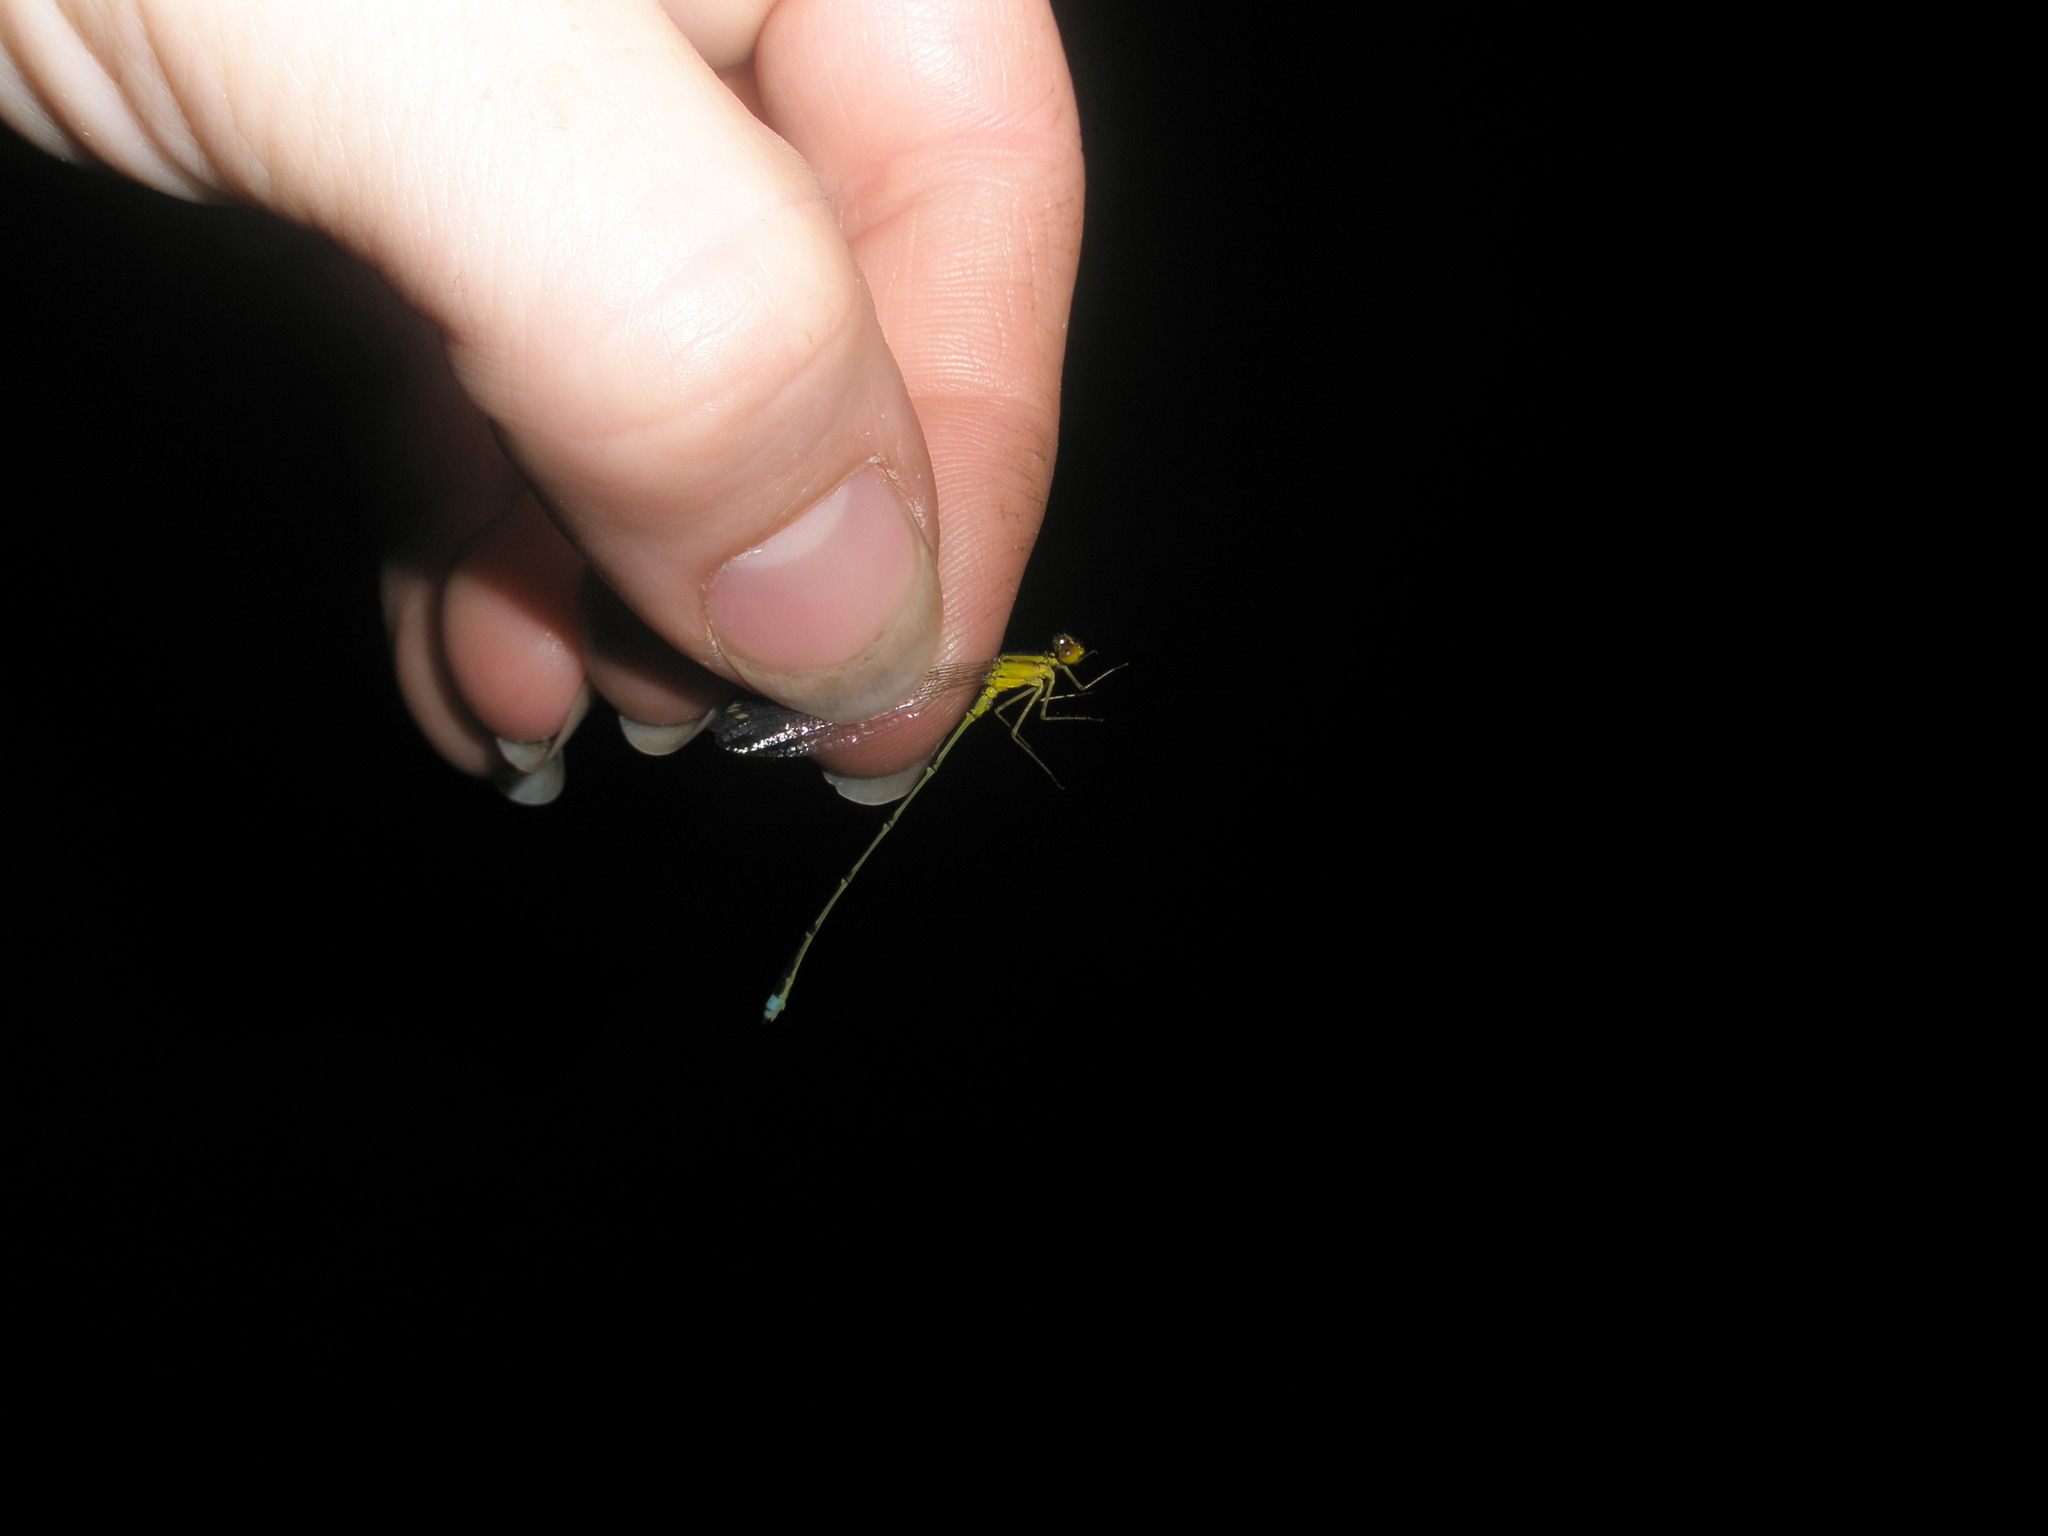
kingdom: Animalia
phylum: Arthropoda
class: Insecta
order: Odonata
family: Coenagrionidae
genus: Enallagma
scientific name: Enallagma vesperum
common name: Vesper bluet
